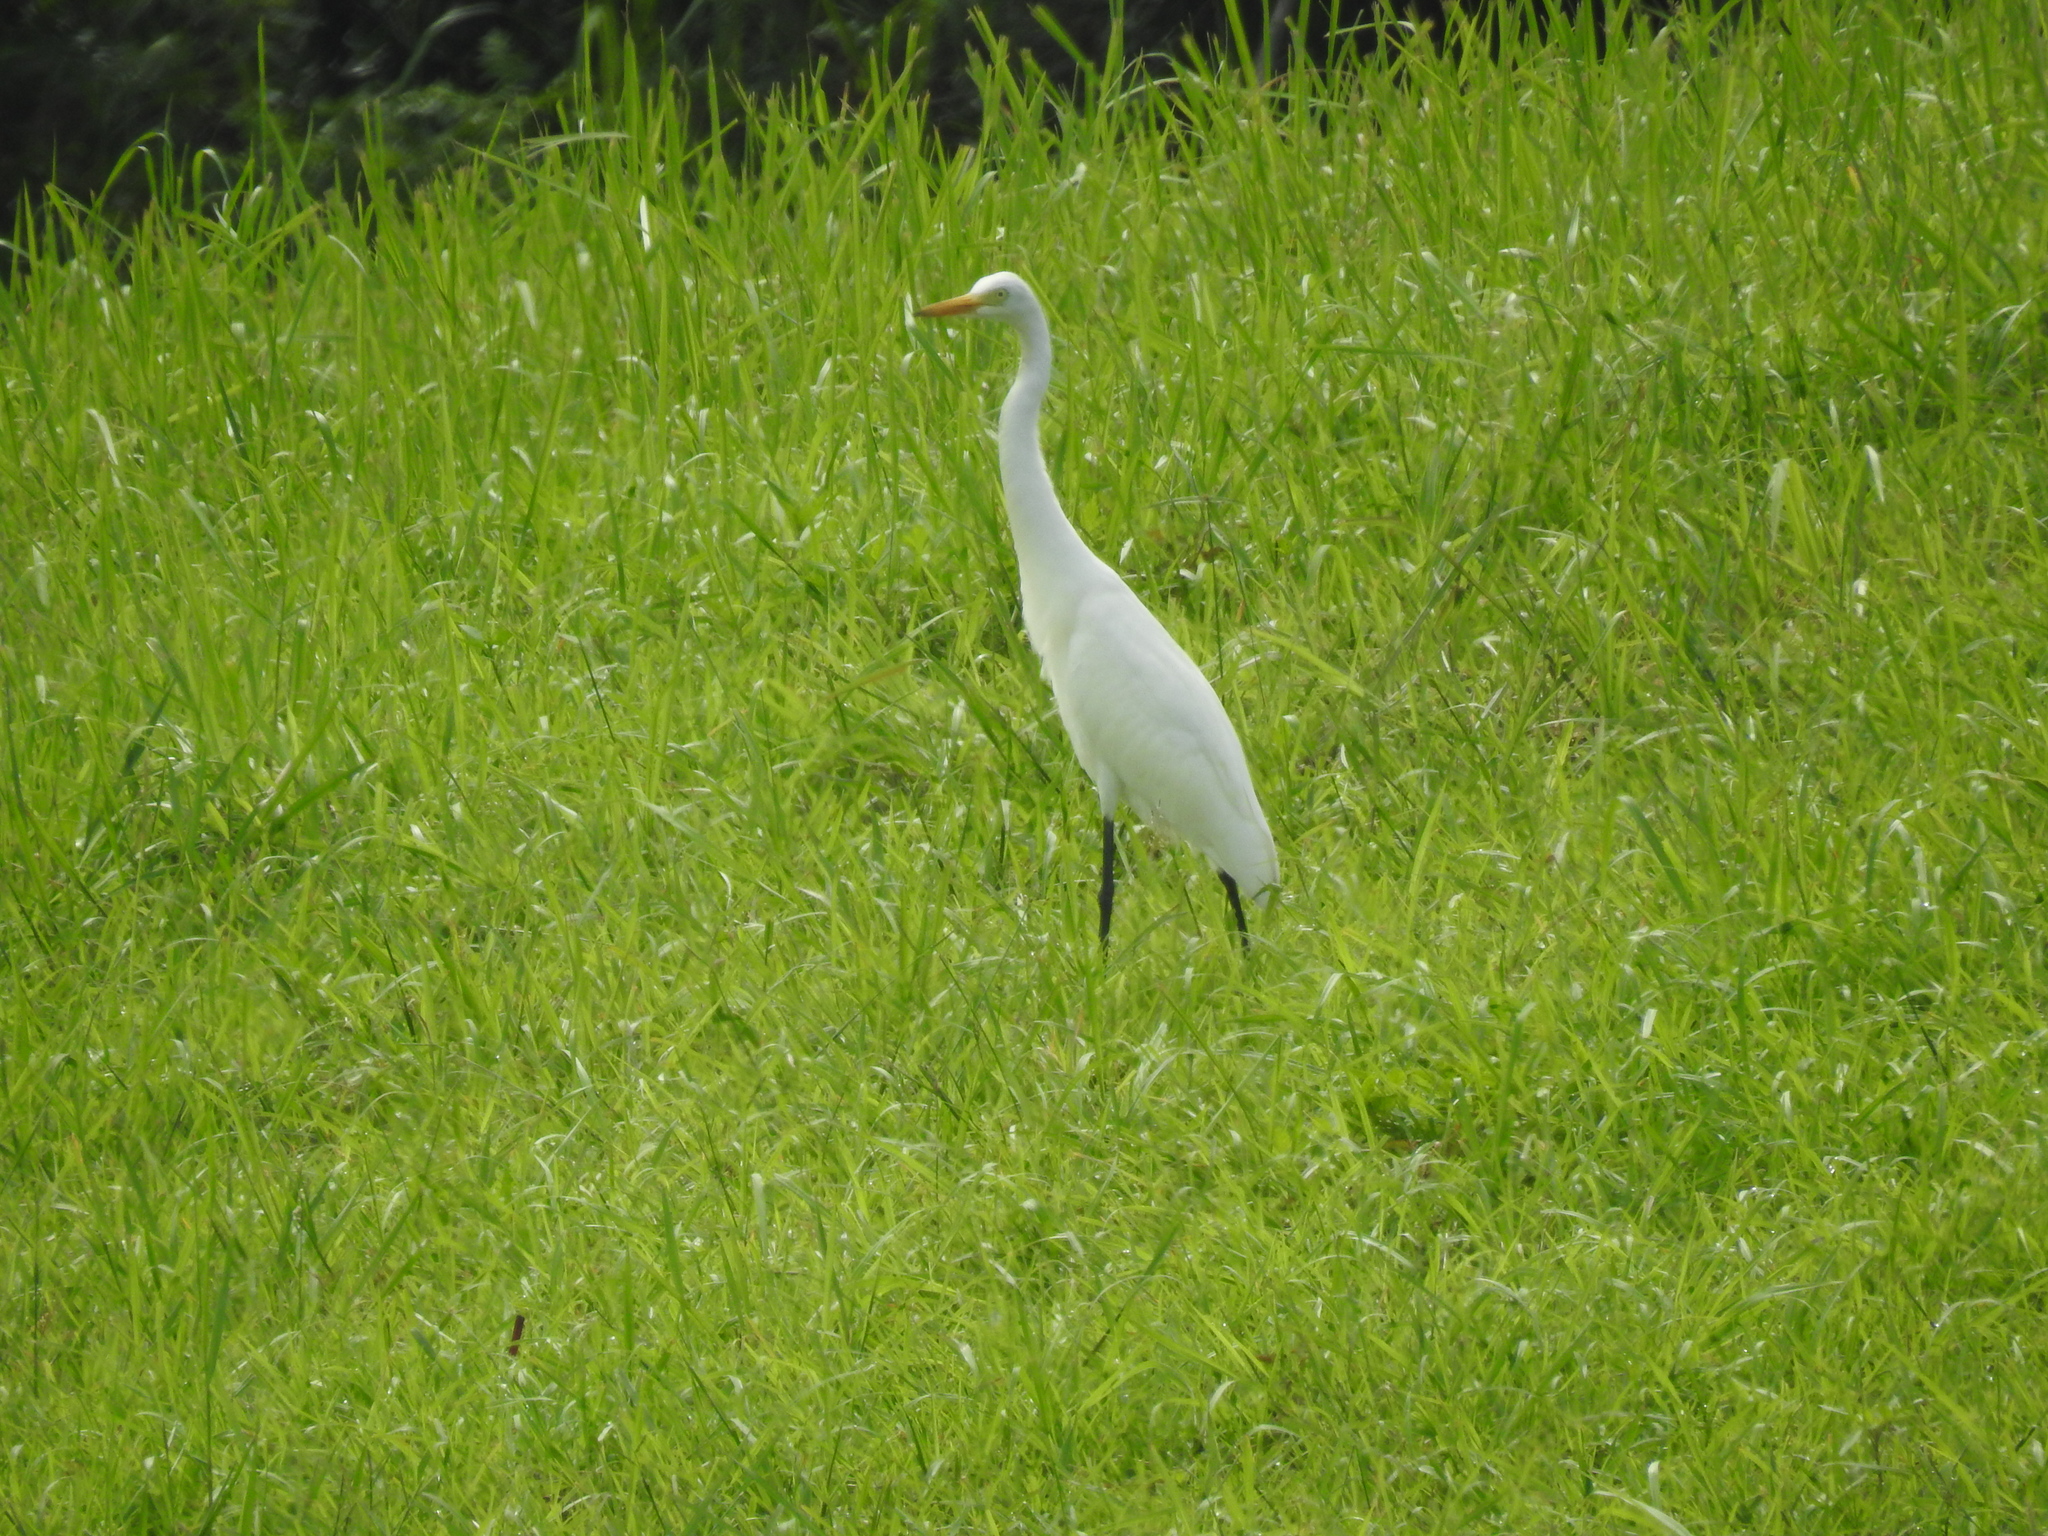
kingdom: Animalia
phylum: Chordata
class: Aves
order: Pelecaniformes
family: Ardeidae
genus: Egretta
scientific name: Egretta intermedia
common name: Intermediate egret
